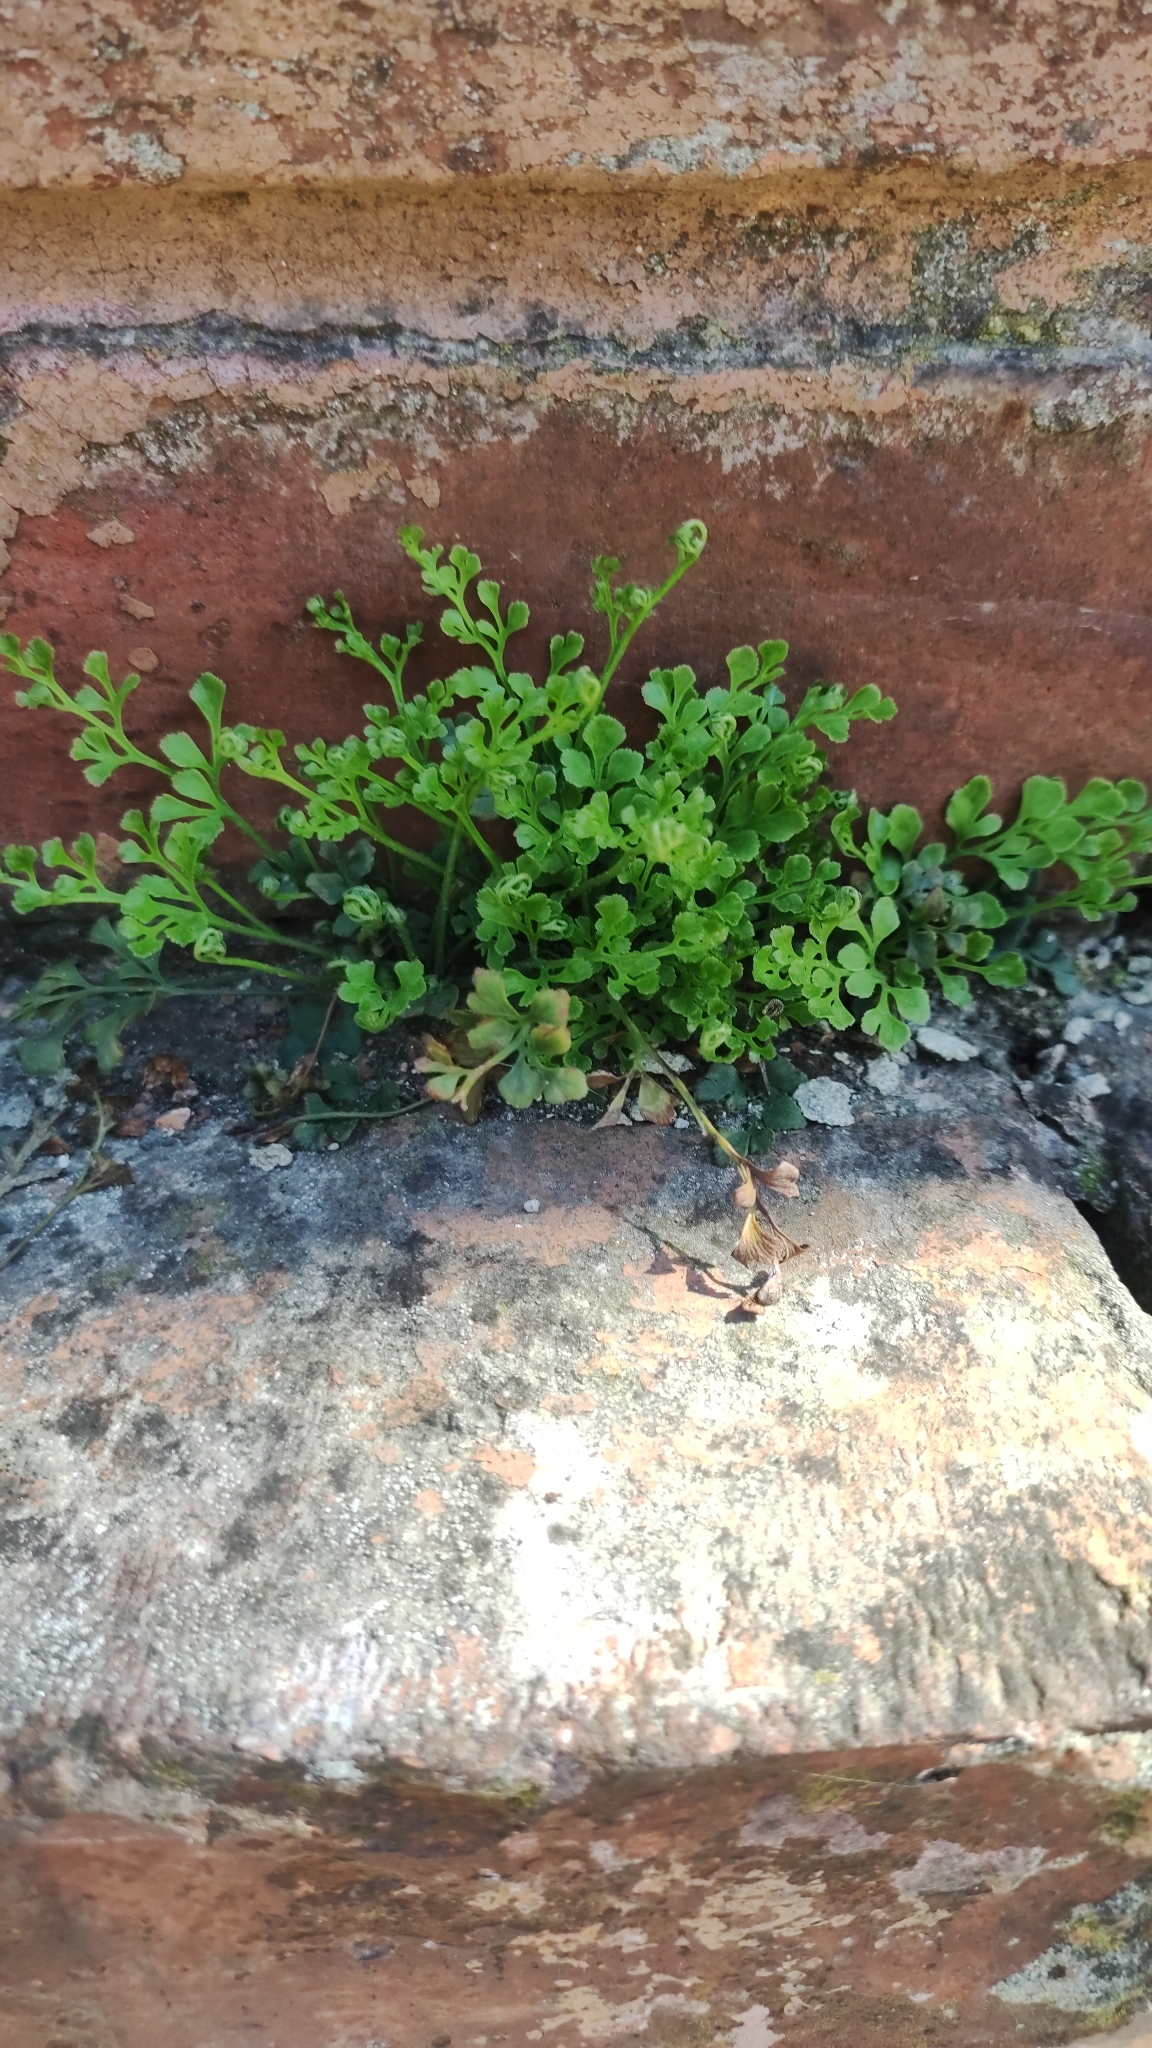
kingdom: Plantae
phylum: Tracheophyta
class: Polypodiopsida
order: Polypodiales
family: Aspleniaceae
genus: Asplenium
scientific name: Asplenium ruta-muraria
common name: Wall-rue
